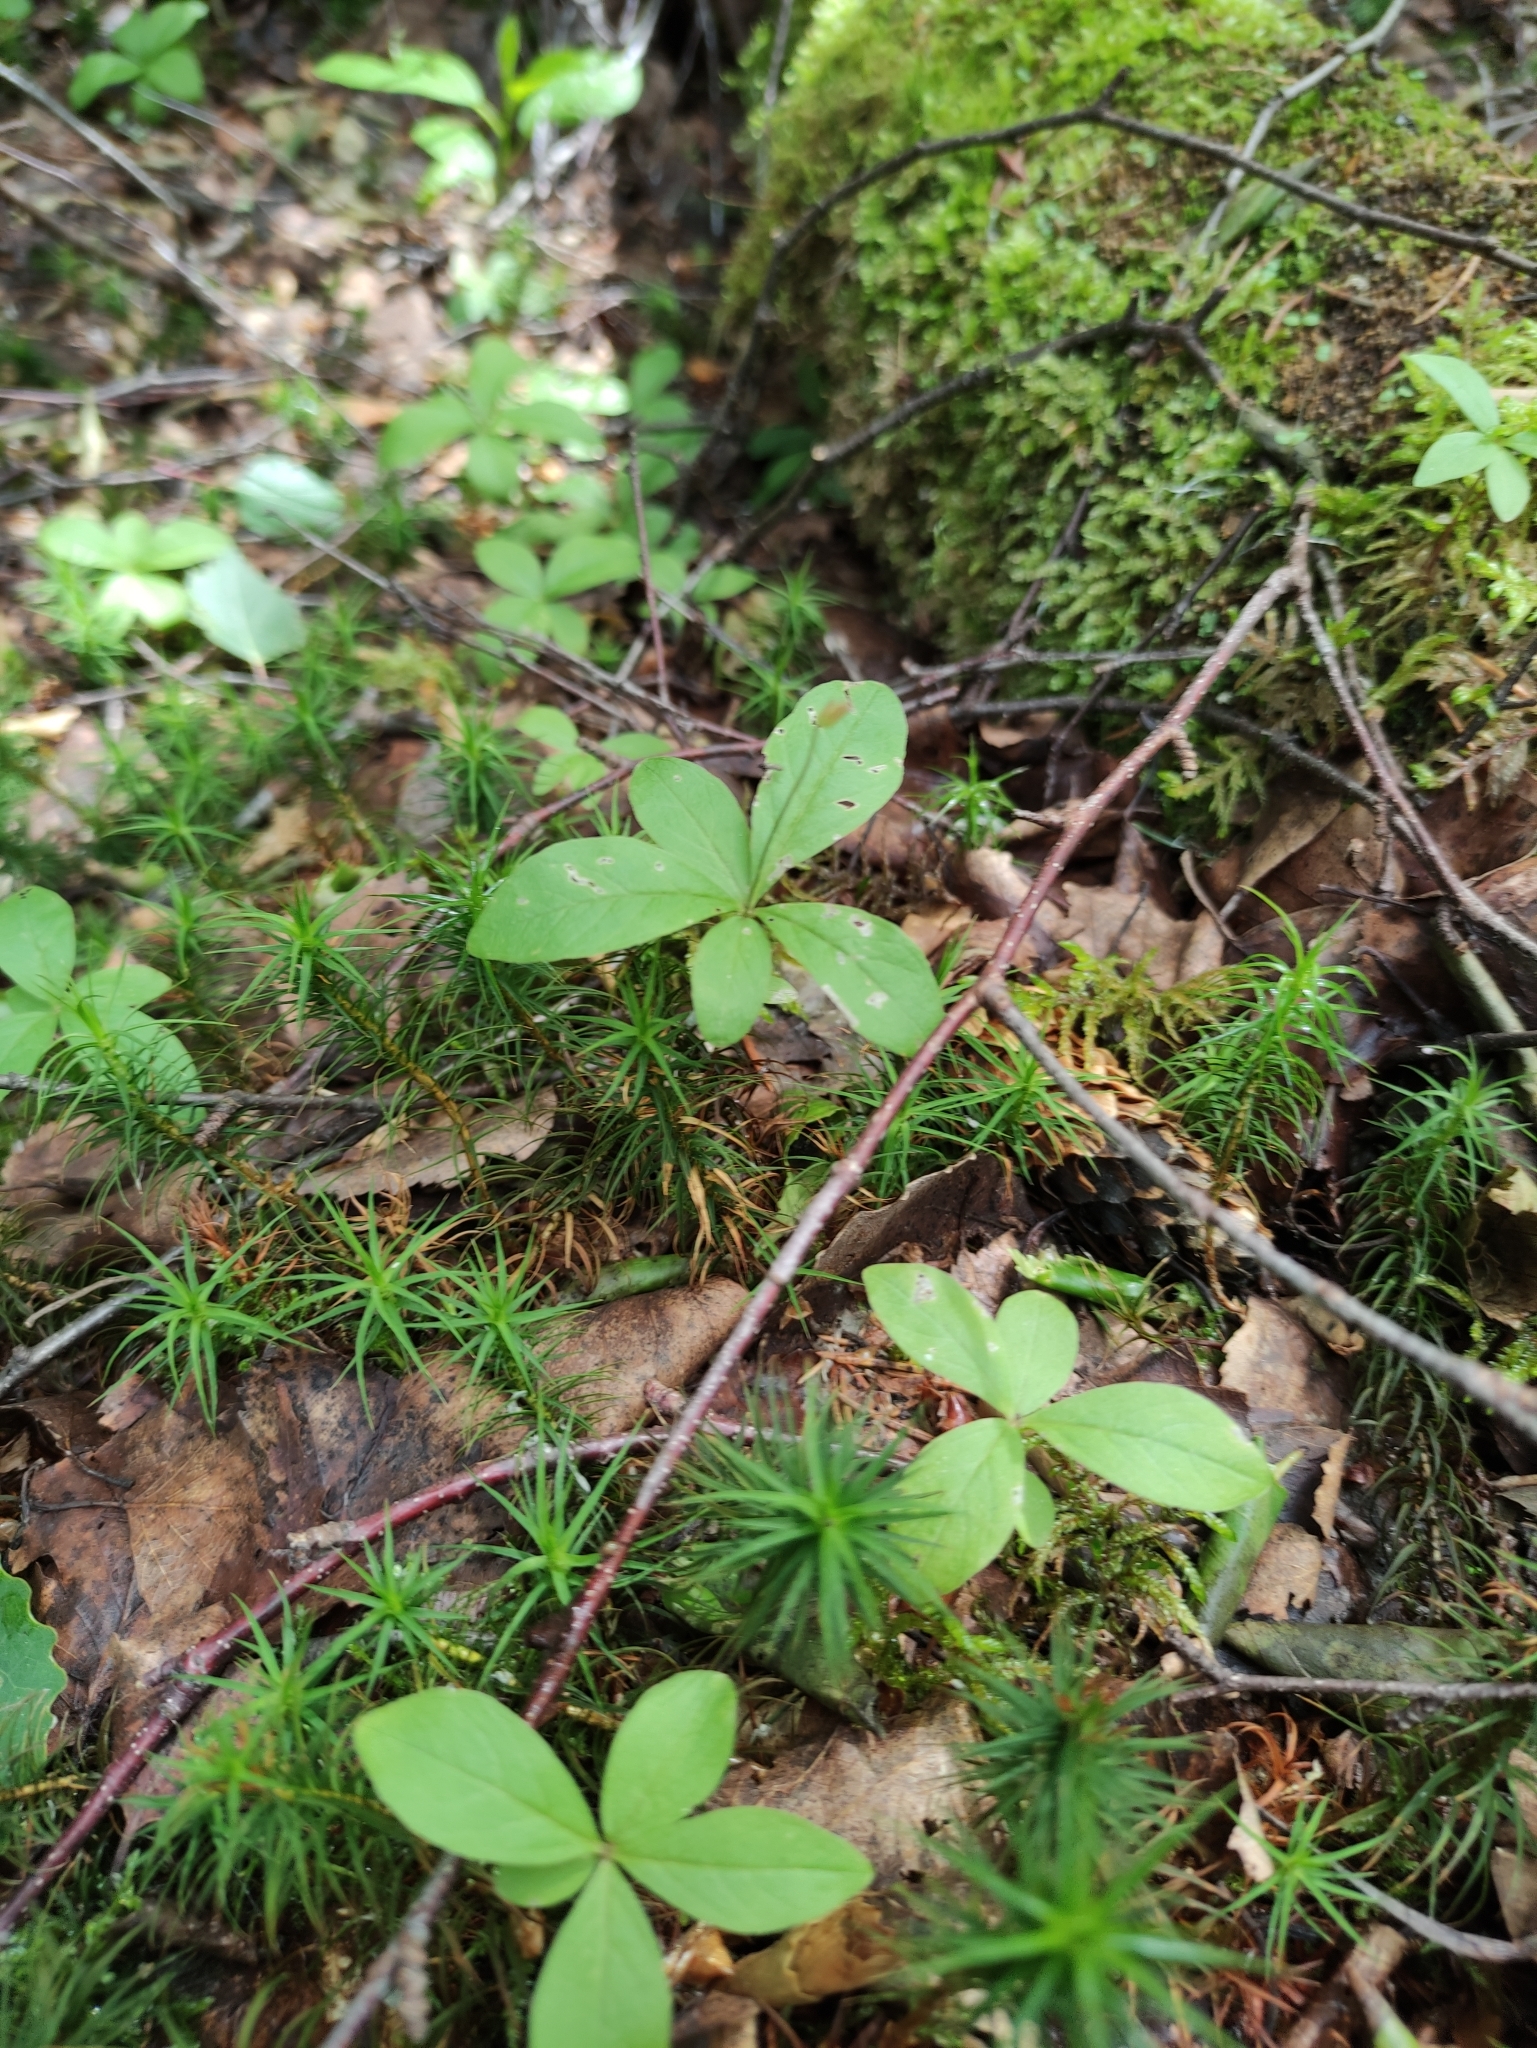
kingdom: Plantae
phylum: Tracheophyta
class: Magnoliopsida
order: Ericales
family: Primulaceae
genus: Lysimachia
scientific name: Lysimachia europaea
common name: Arctic starflower
